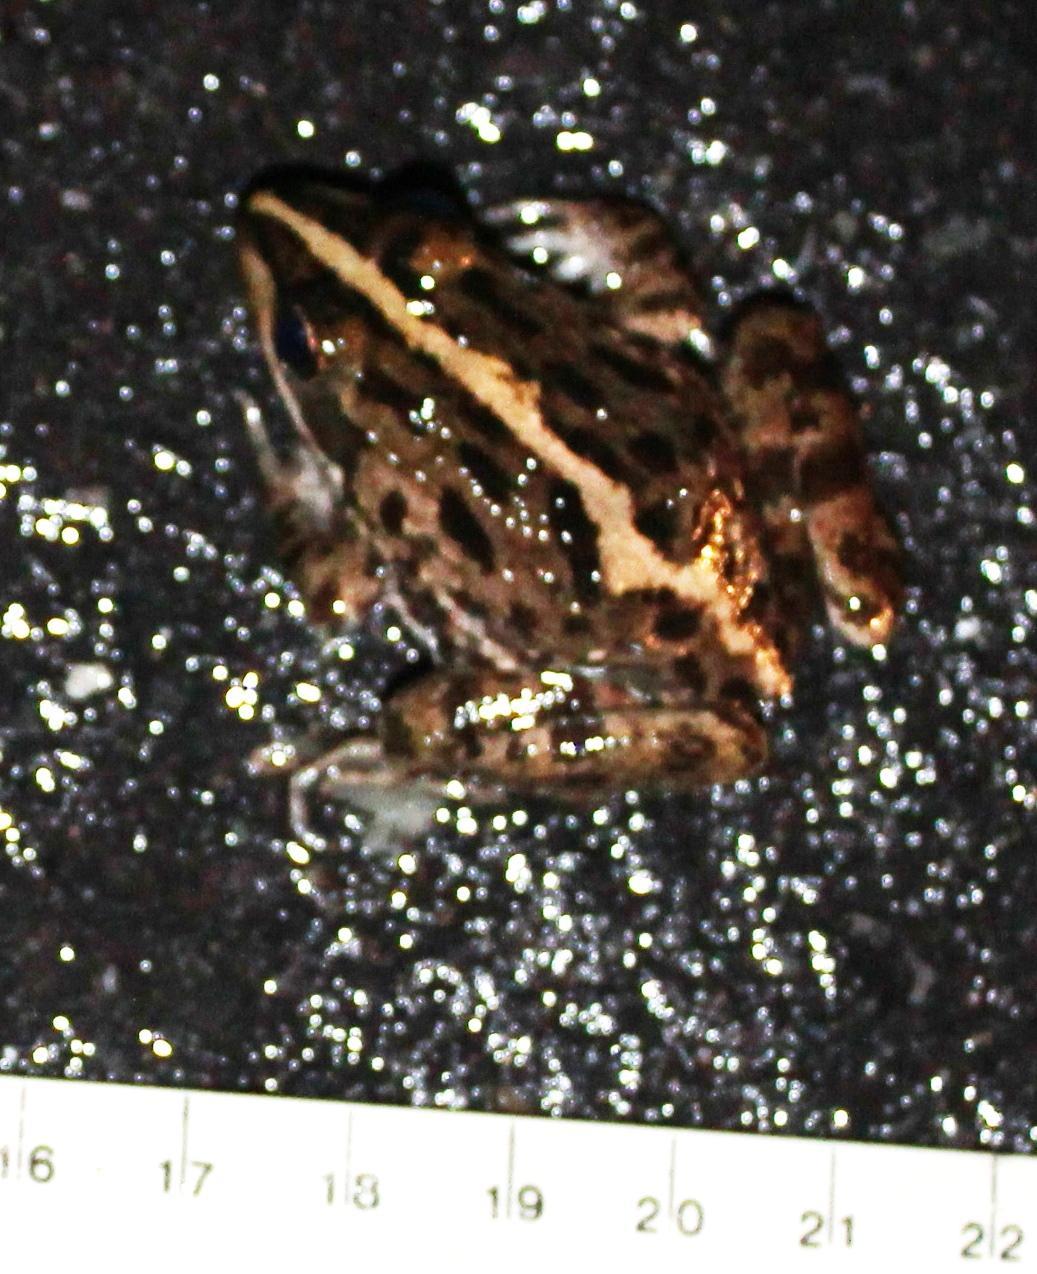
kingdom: Animalia
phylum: Chordata
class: Amphibia
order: Anura
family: Pyxicephalidae
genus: Amietia
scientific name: Amietia fuscigula
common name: Cape rana
